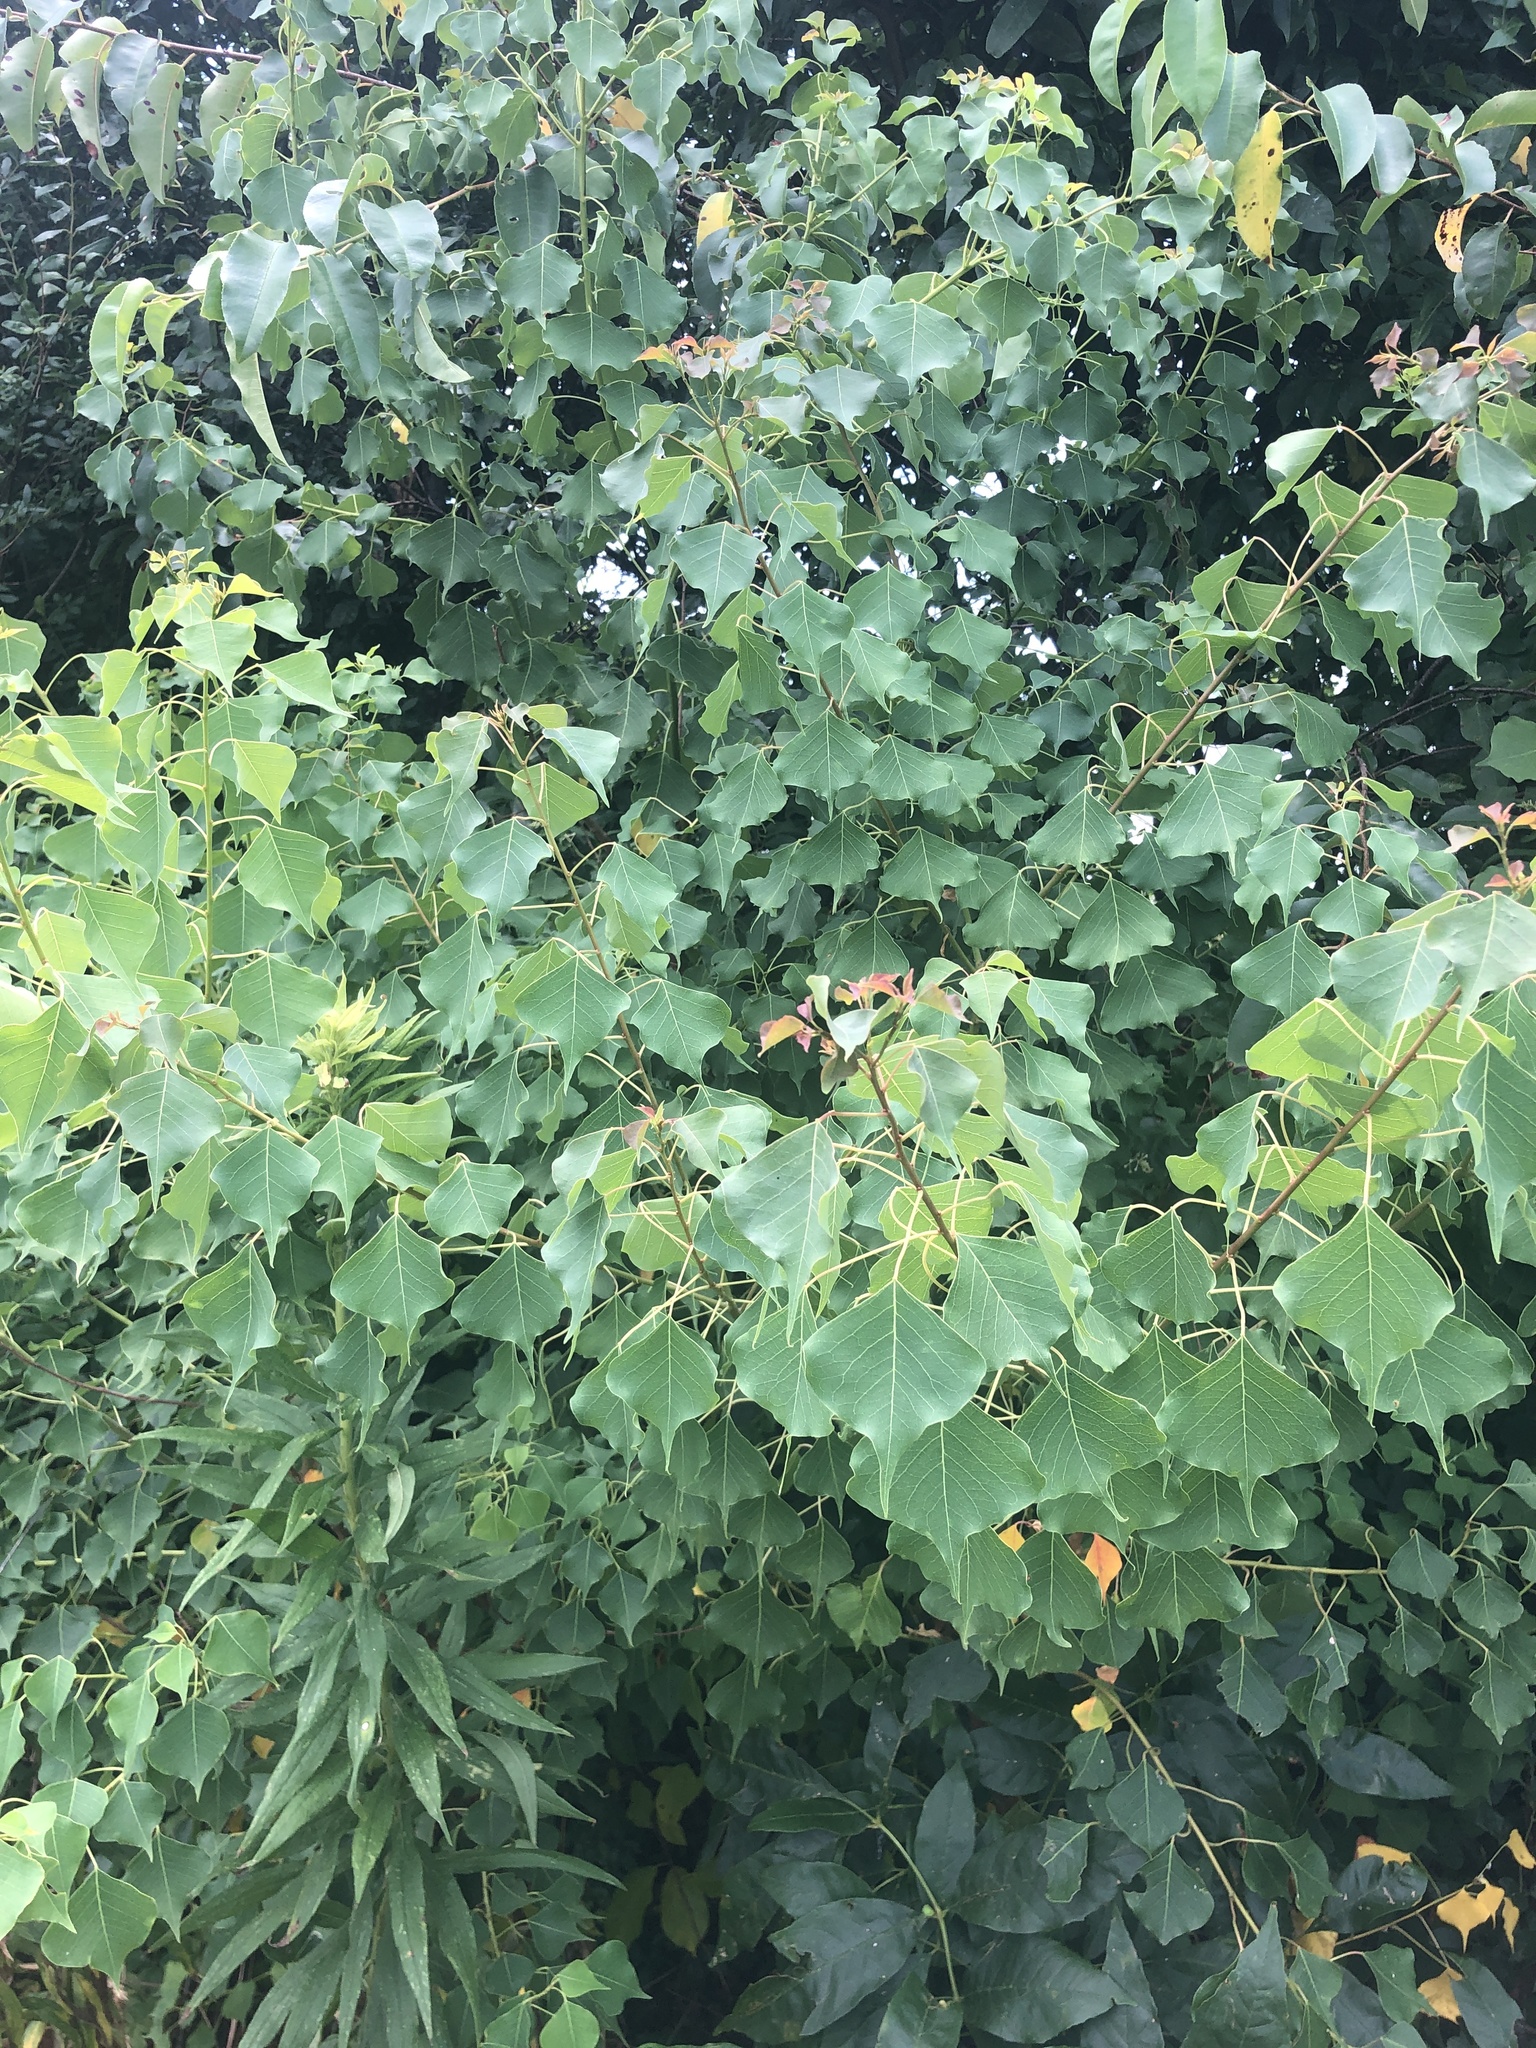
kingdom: Plantae
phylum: Tracheophyta
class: Magnoliopsida
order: Malpighiales
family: Euphorbiaceae
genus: Triadica
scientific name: Triadica sebifera
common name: Chinese tallow
